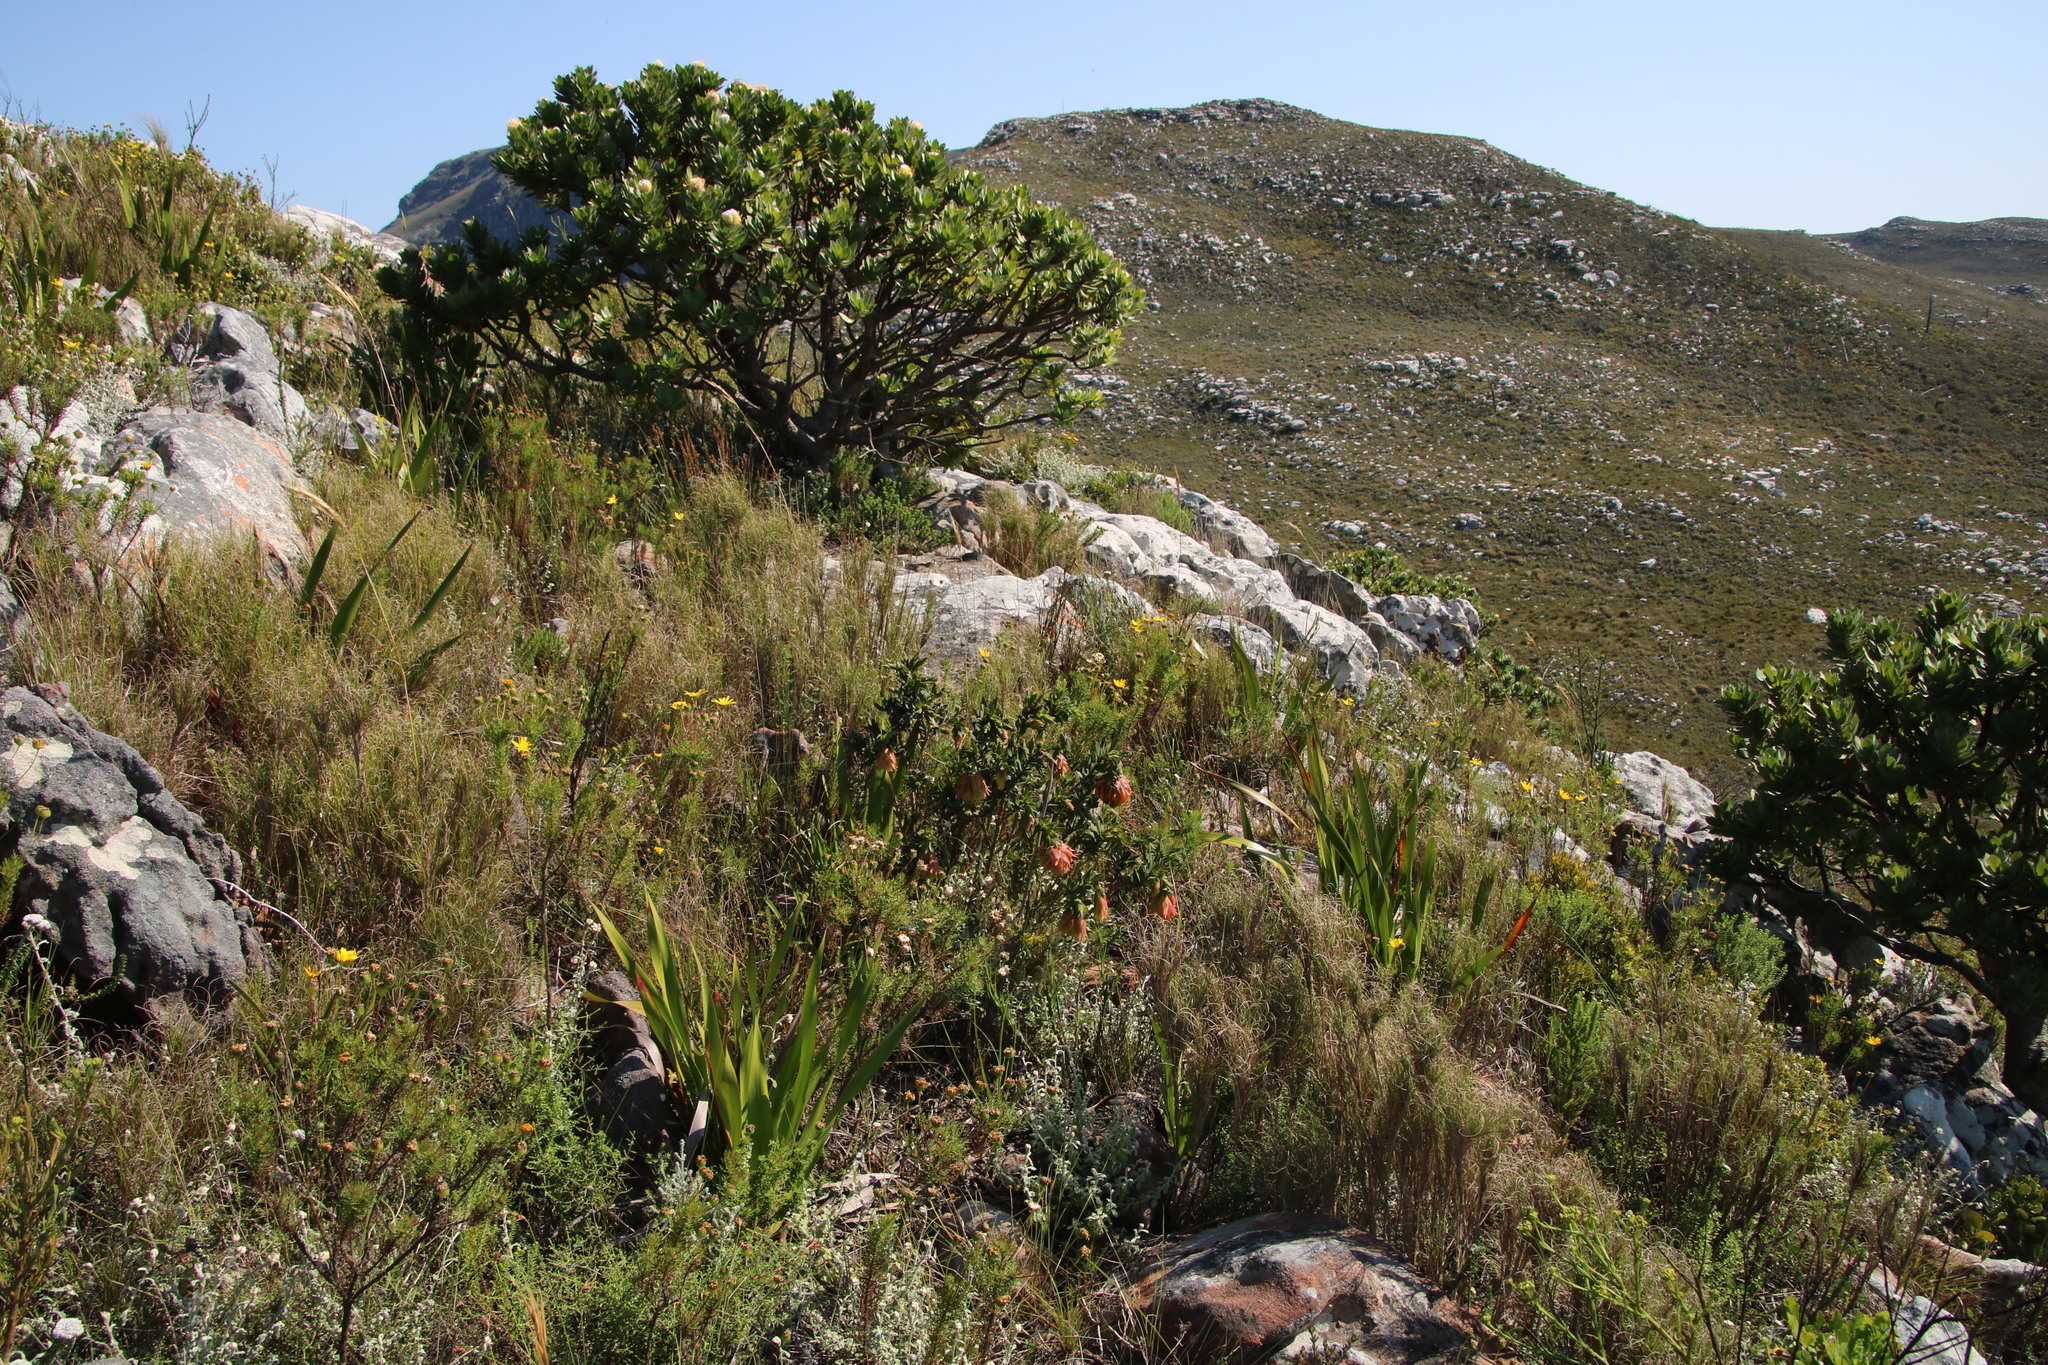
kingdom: Plantae
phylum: Tracheophyta
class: Magnoliopsida
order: Fabales
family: Fabaceae
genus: Liparia
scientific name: Liparia splendens
